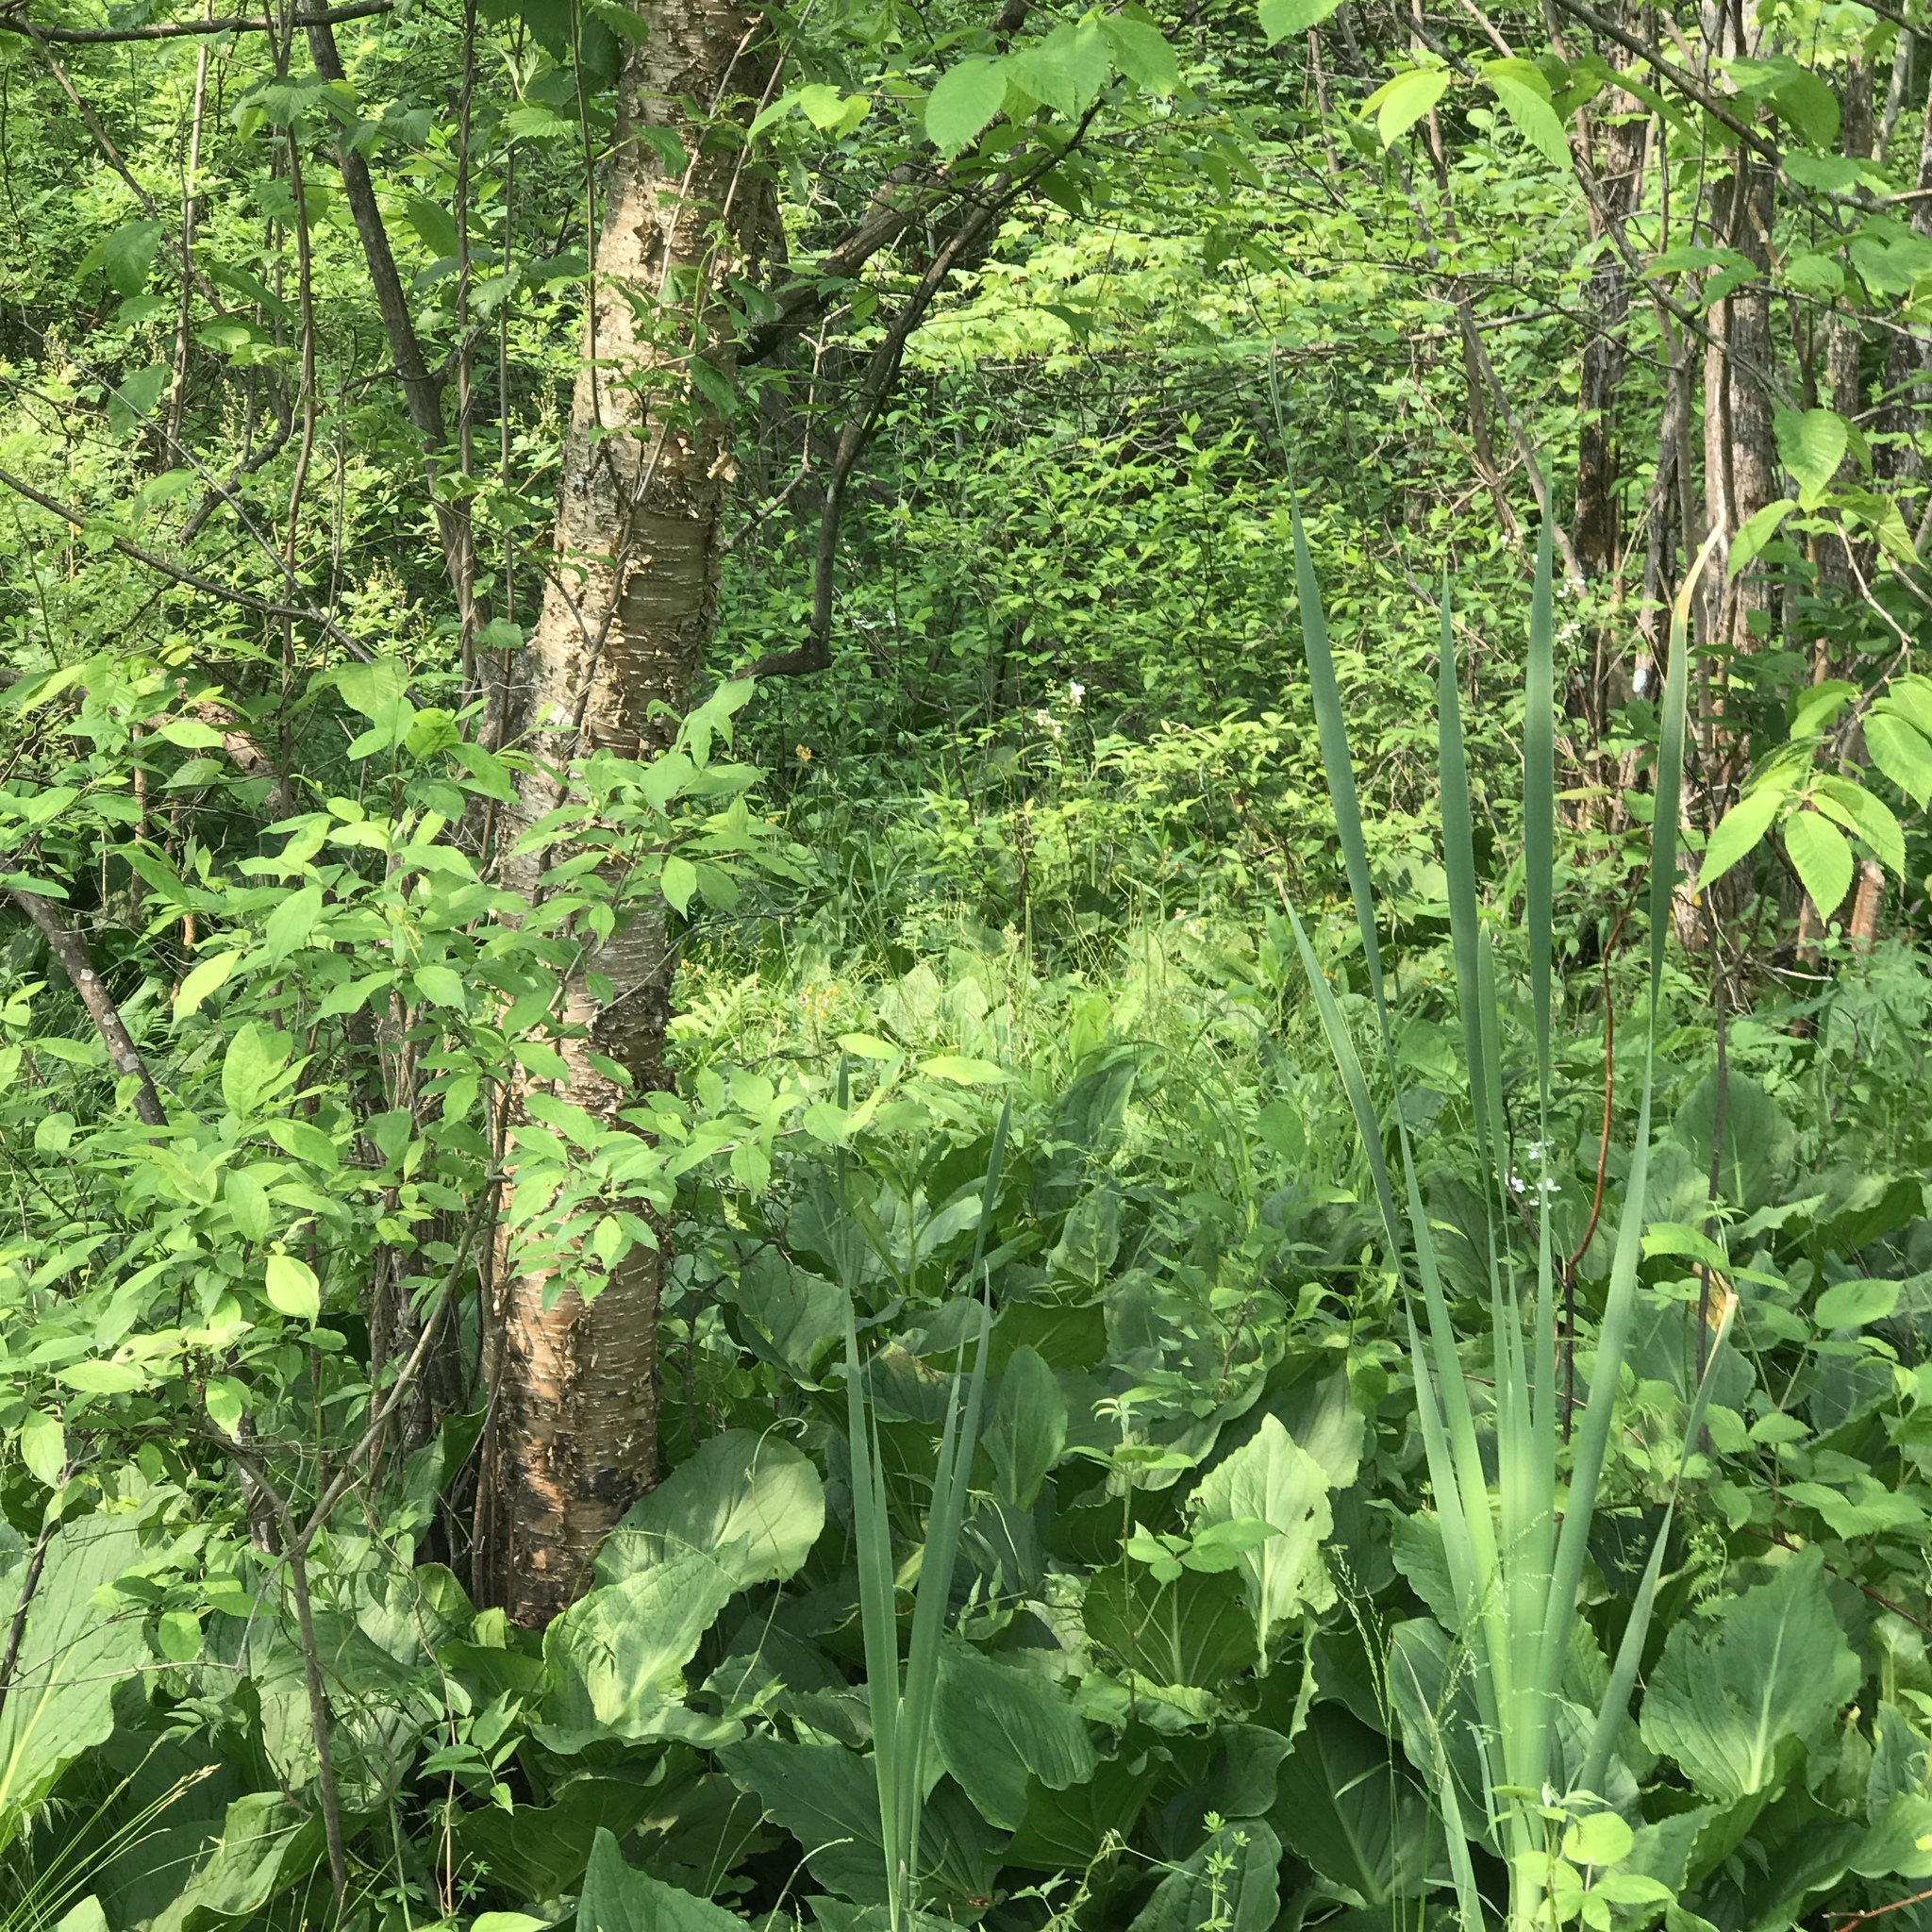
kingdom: Plantae
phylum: Tracheophyta
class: Liliopsida
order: Poales
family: Typhaceae
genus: Typha
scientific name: Typha latifolia
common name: Broadleaf cattail
